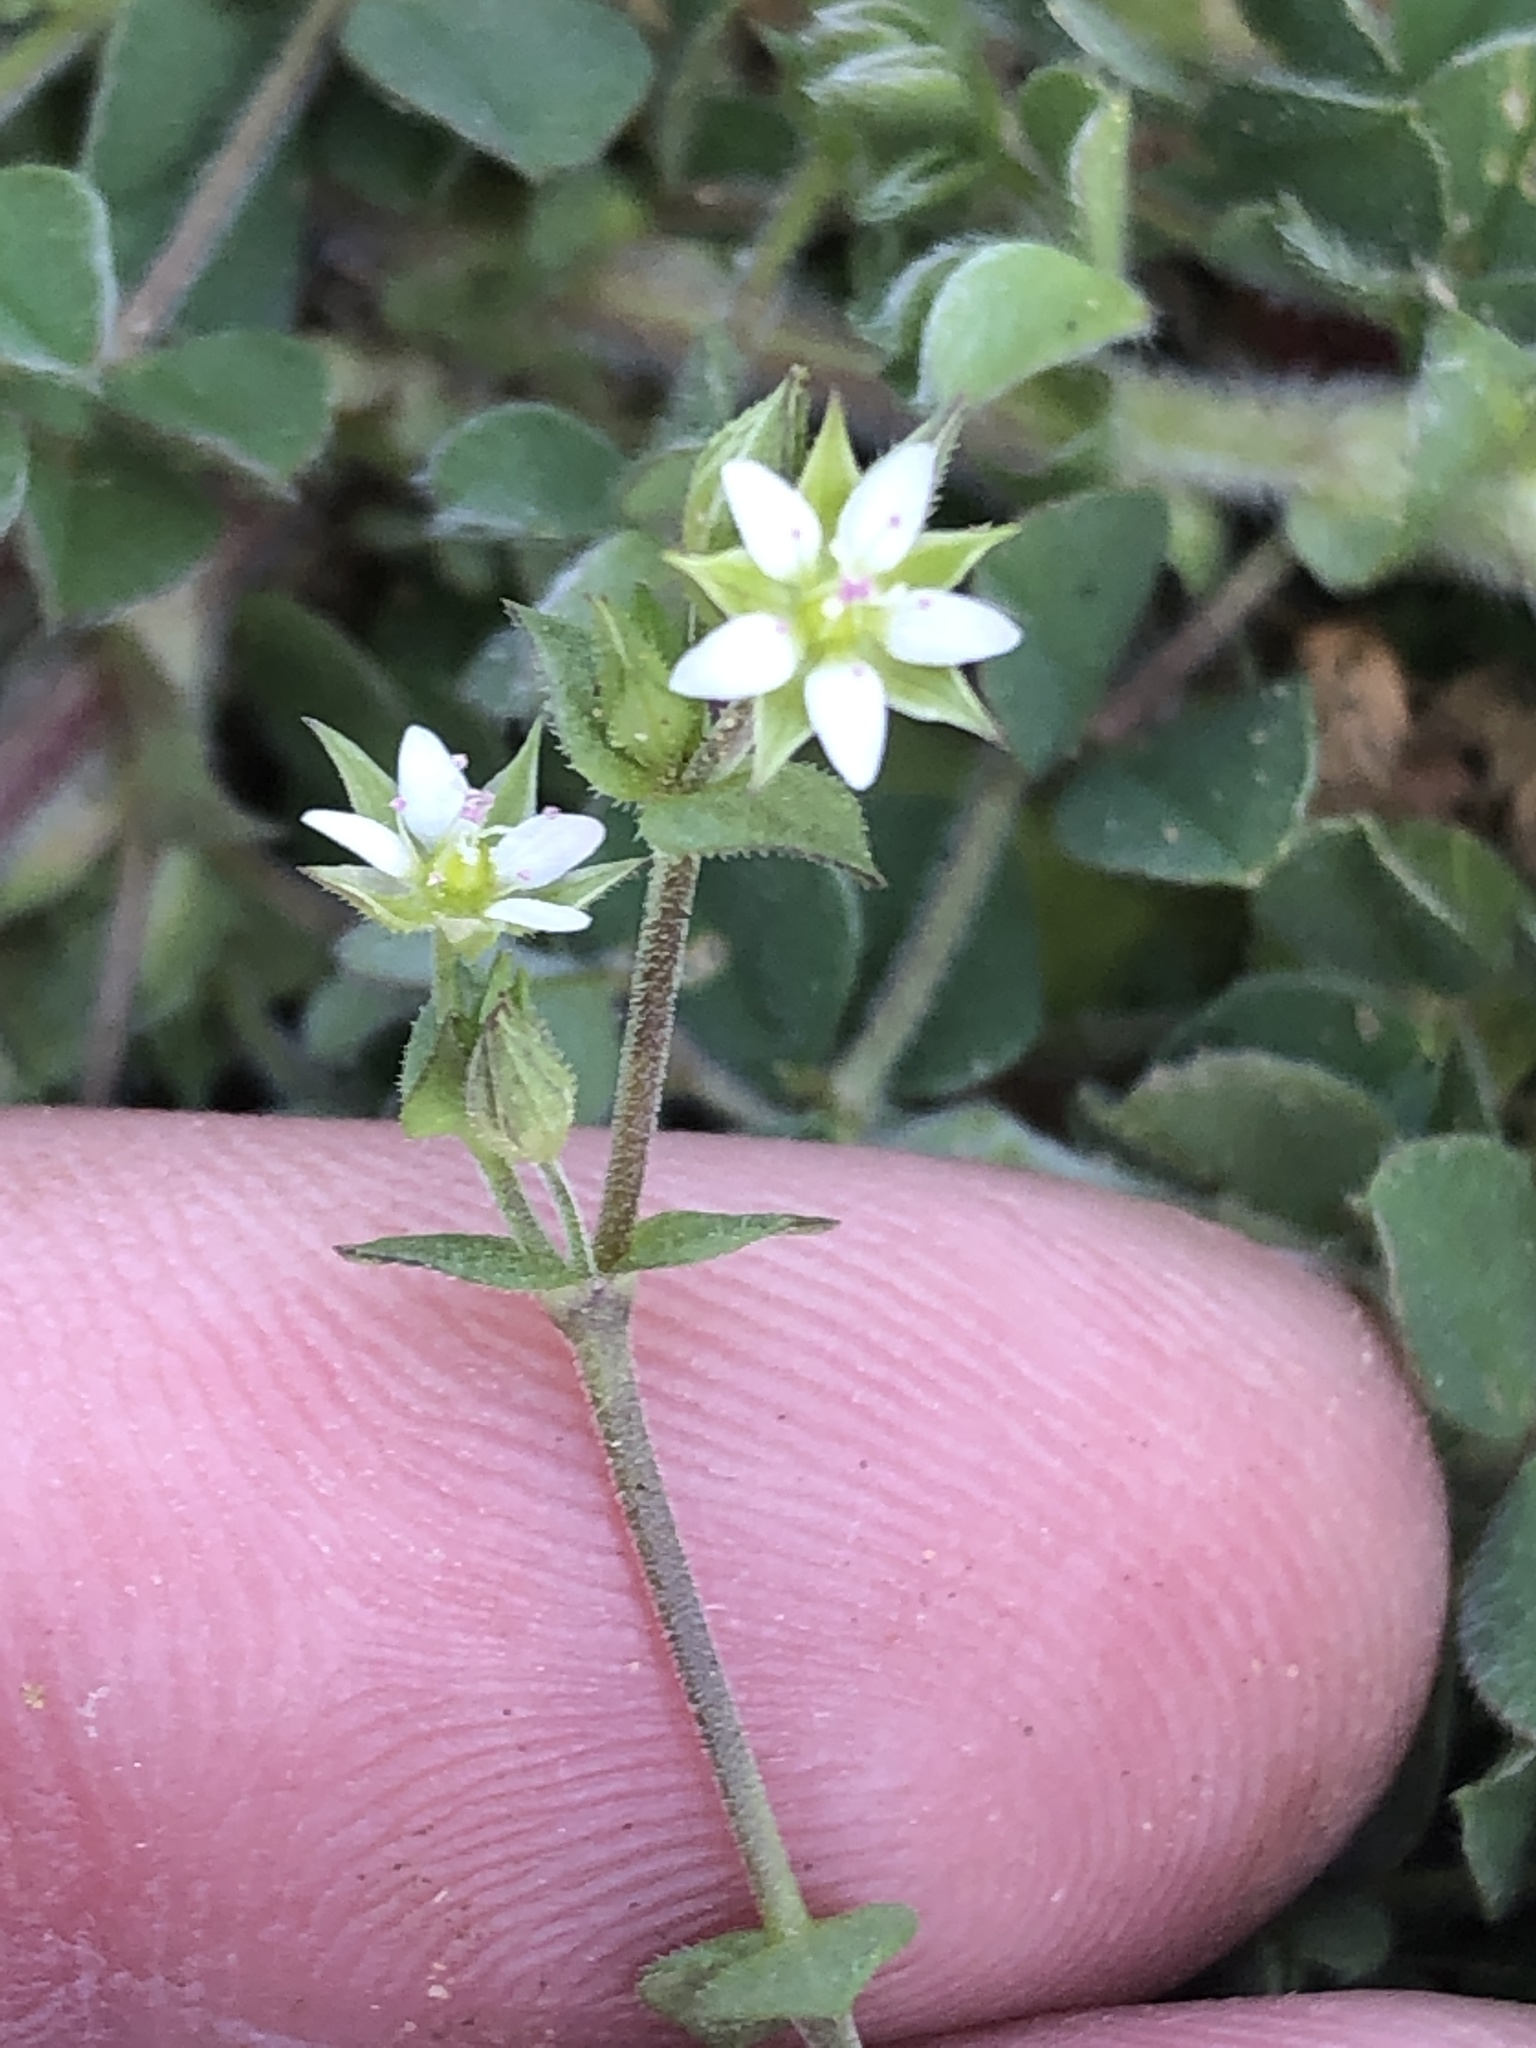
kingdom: Plantae
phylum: Tracheophyta
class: Magnoliopsida
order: Caryophyllales
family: Caryophyllaceae
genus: Arenaria
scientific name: Arenaria serpyllifolia
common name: Thyme-leaved sandwort
